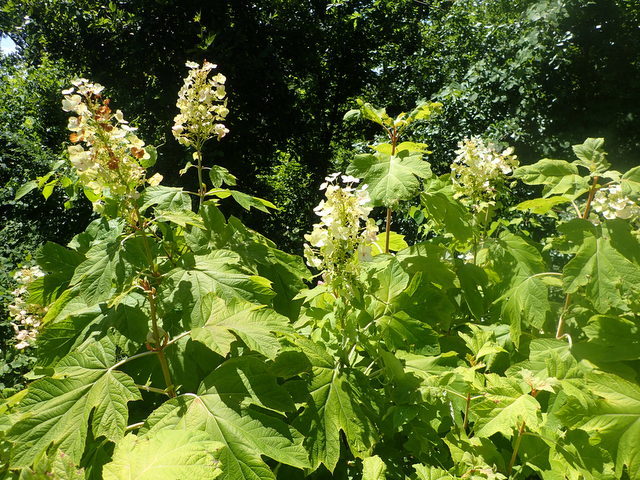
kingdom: Plantae
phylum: Tracheophyta
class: Magnoliopsida
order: Cornales
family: Hydrangeaceae
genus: Hydrangea
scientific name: Hydrangea quercifolia
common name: Oak-leaf hydrangea
